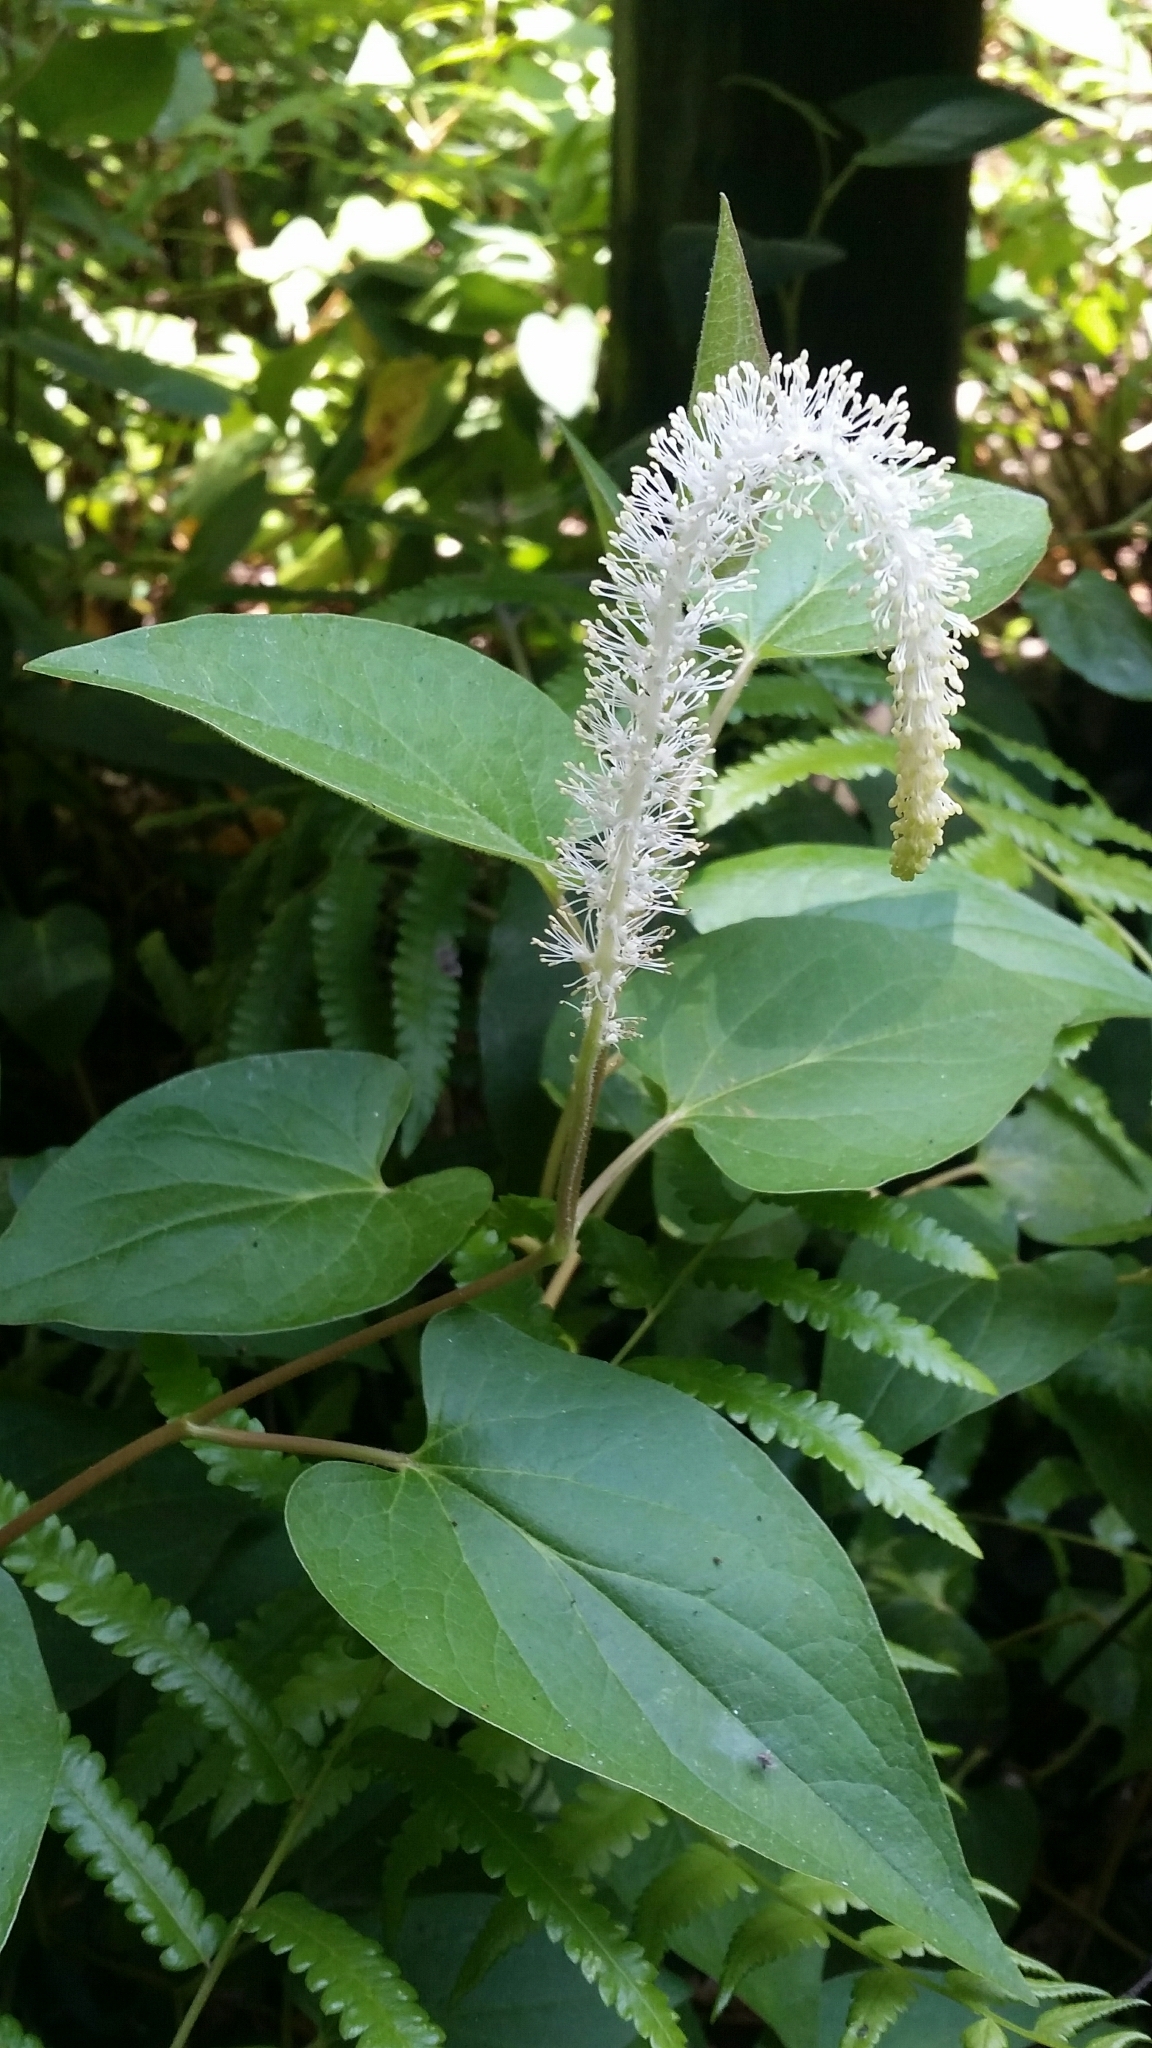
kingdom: Plantae
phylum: Tracheophyta
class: Magnoliopsida
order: Piperales
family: Saururaceae
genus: Saururus
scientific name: Saururus cernuus
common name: Lizard's-tail
